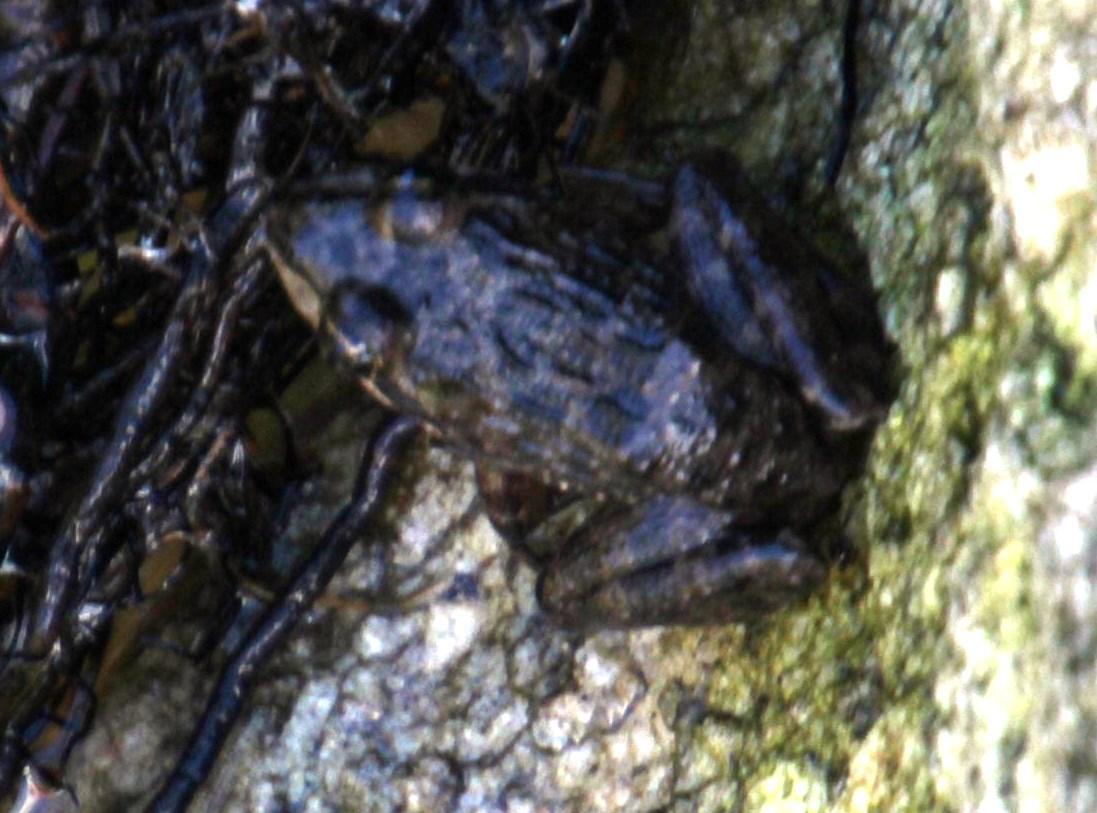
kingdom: Animalia
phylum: Chordata
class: Amphibia
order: Anura
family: Pyxicephalidae
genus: Amietia
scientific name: Amietia fuscigula
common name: Cape rana
